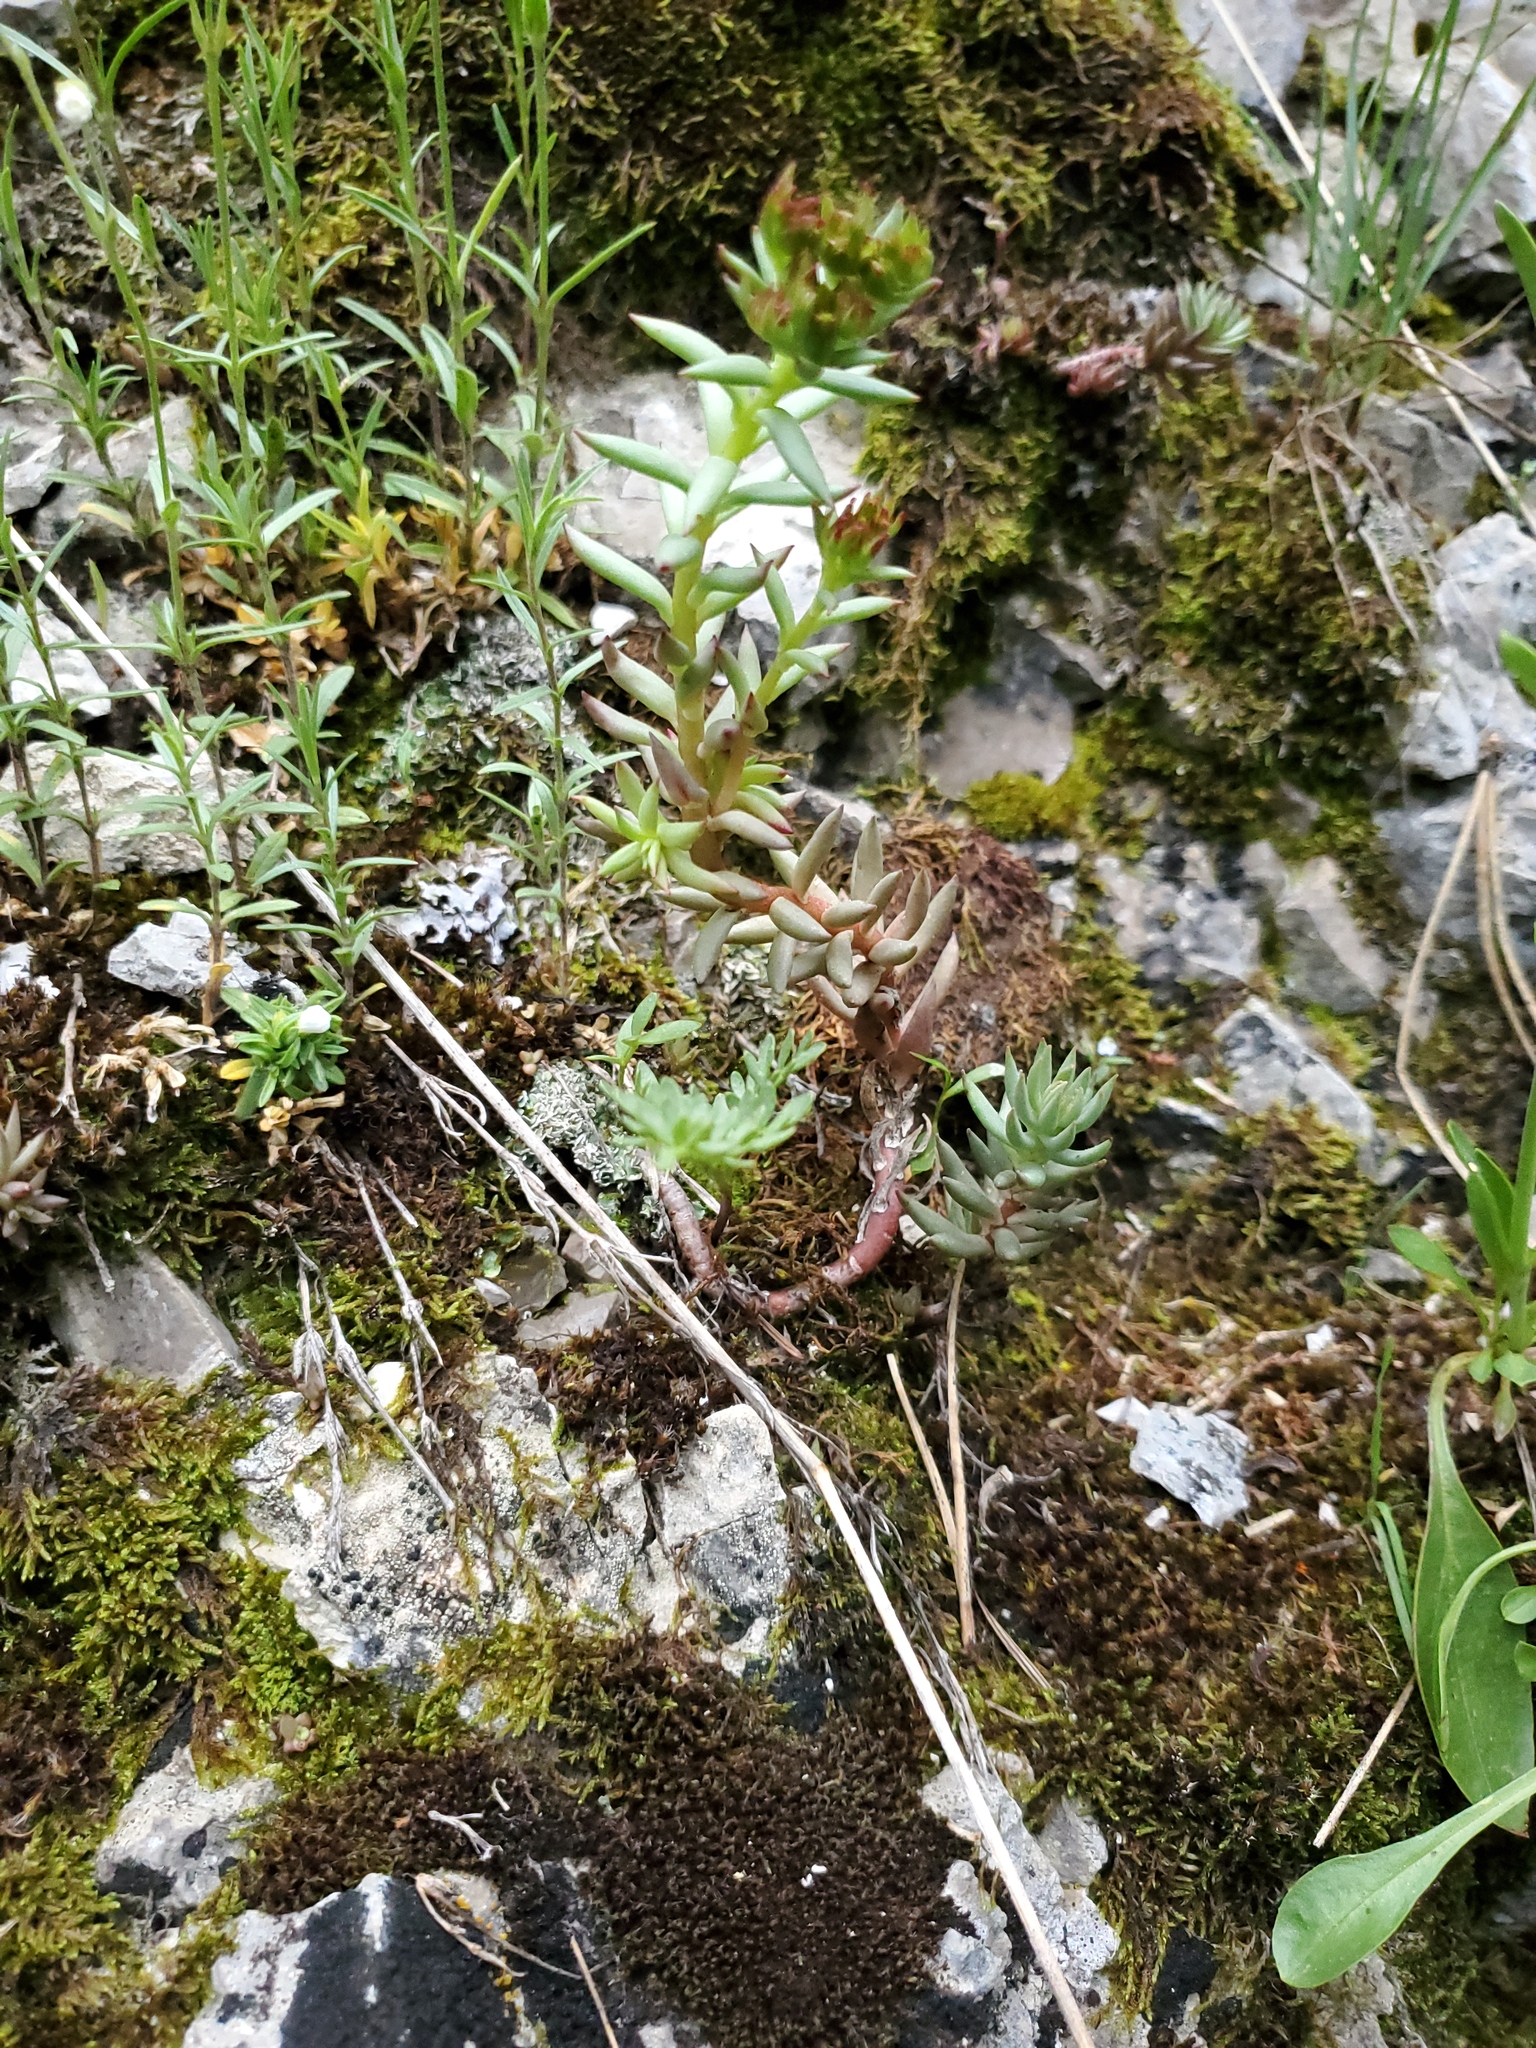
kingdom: Plantae
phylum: Tracheophyta
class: Magnoliopsida
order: Saxifragales
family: Crassulaceae
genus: Sedum
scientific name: Sedum lanceolatum
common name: Common stonecrop
